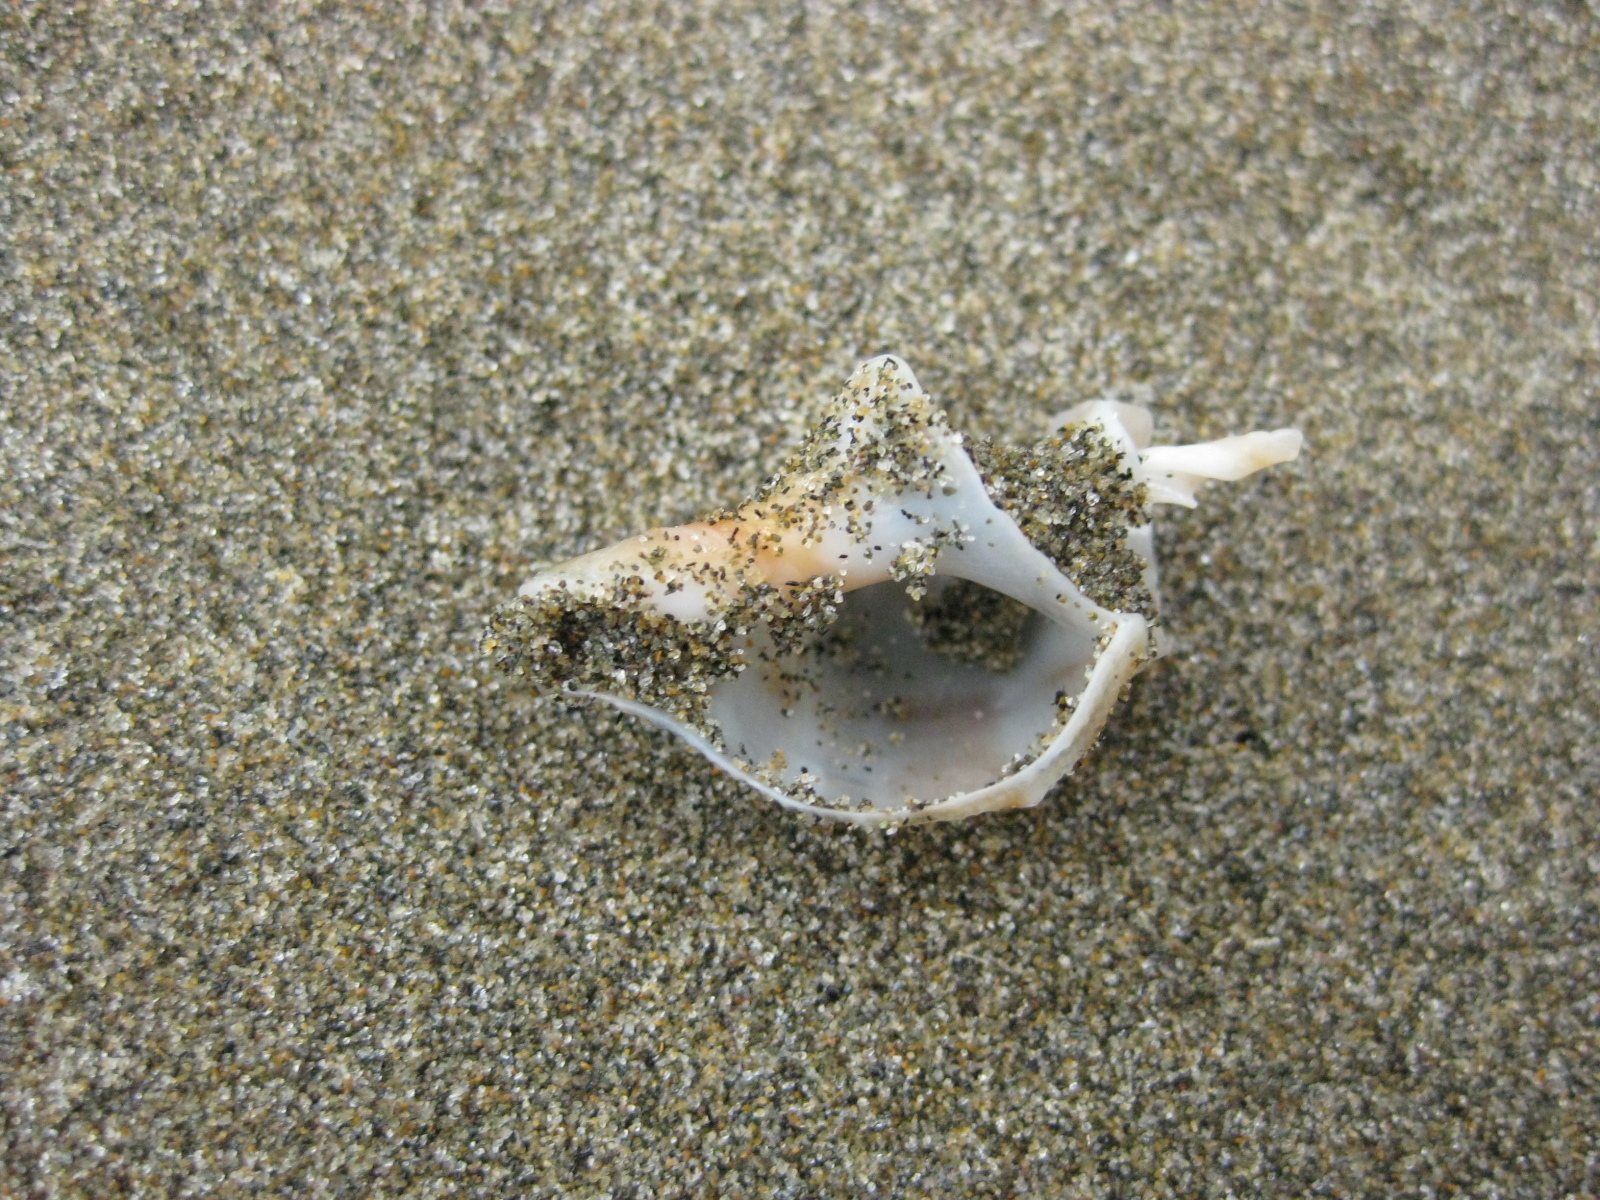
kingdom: Animalia
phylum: Mollusca
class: Gastropoda
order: Neogastropoda
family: Prosiphonidae
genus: Austrofusus
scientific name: Austrofusus glans
